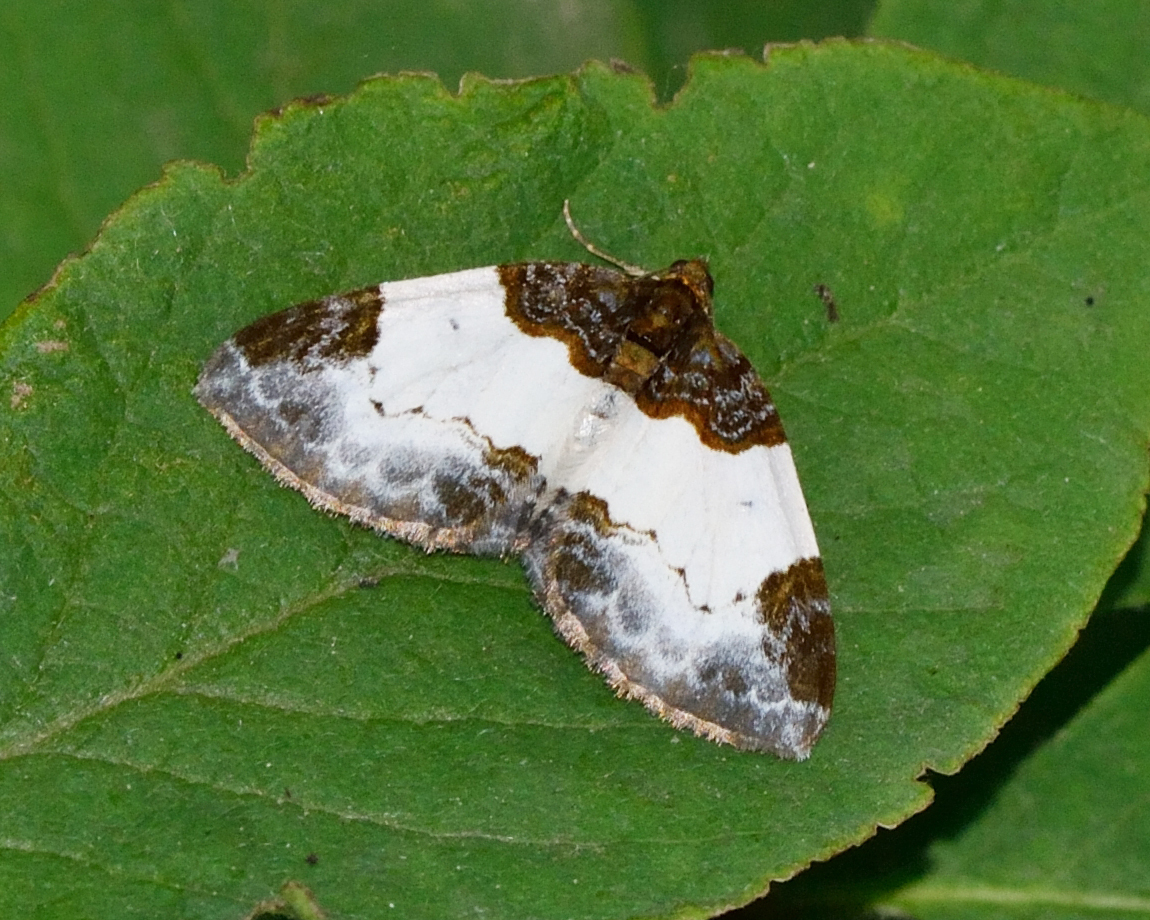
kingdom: Animalia
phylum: Arthropoda
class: Insecta
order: Lepidoptera
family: Geometridae
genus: Mesoleuca
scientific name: Mesoleuca albicillata
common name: Beautiful carpet
